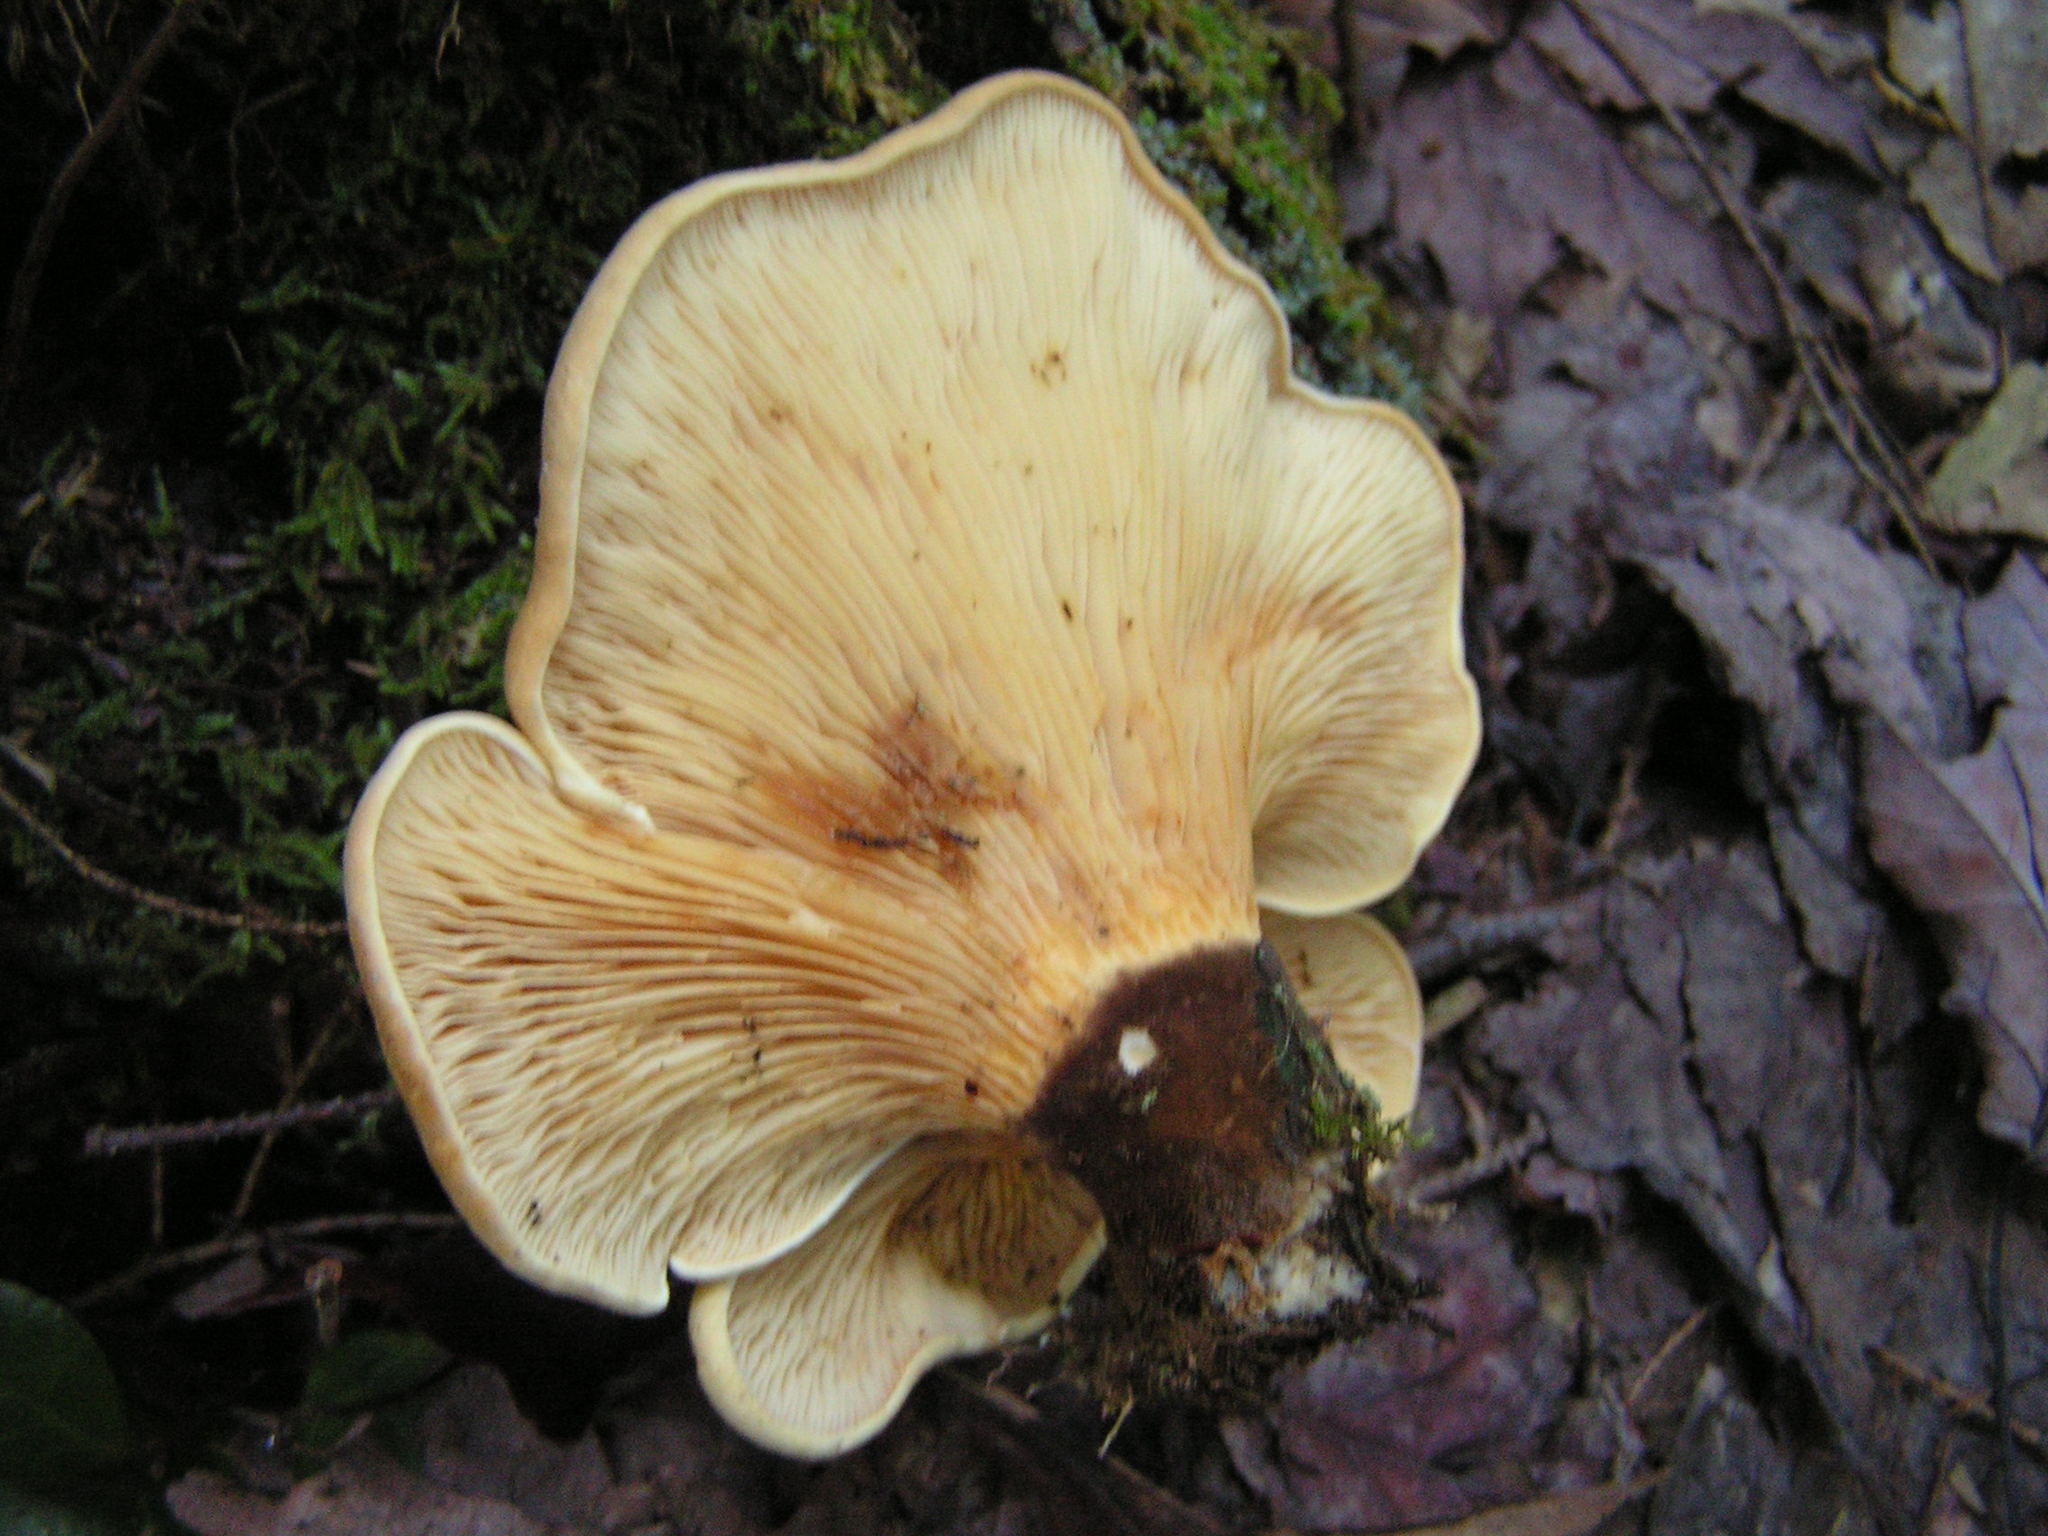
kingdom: Fungi
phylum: Basidiomycota
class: Agaricomycetes
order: Boletales
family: Tapinellaceae
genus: Tapinella
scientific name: Tapinella atrotomentosa
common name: Velvet rollrim
